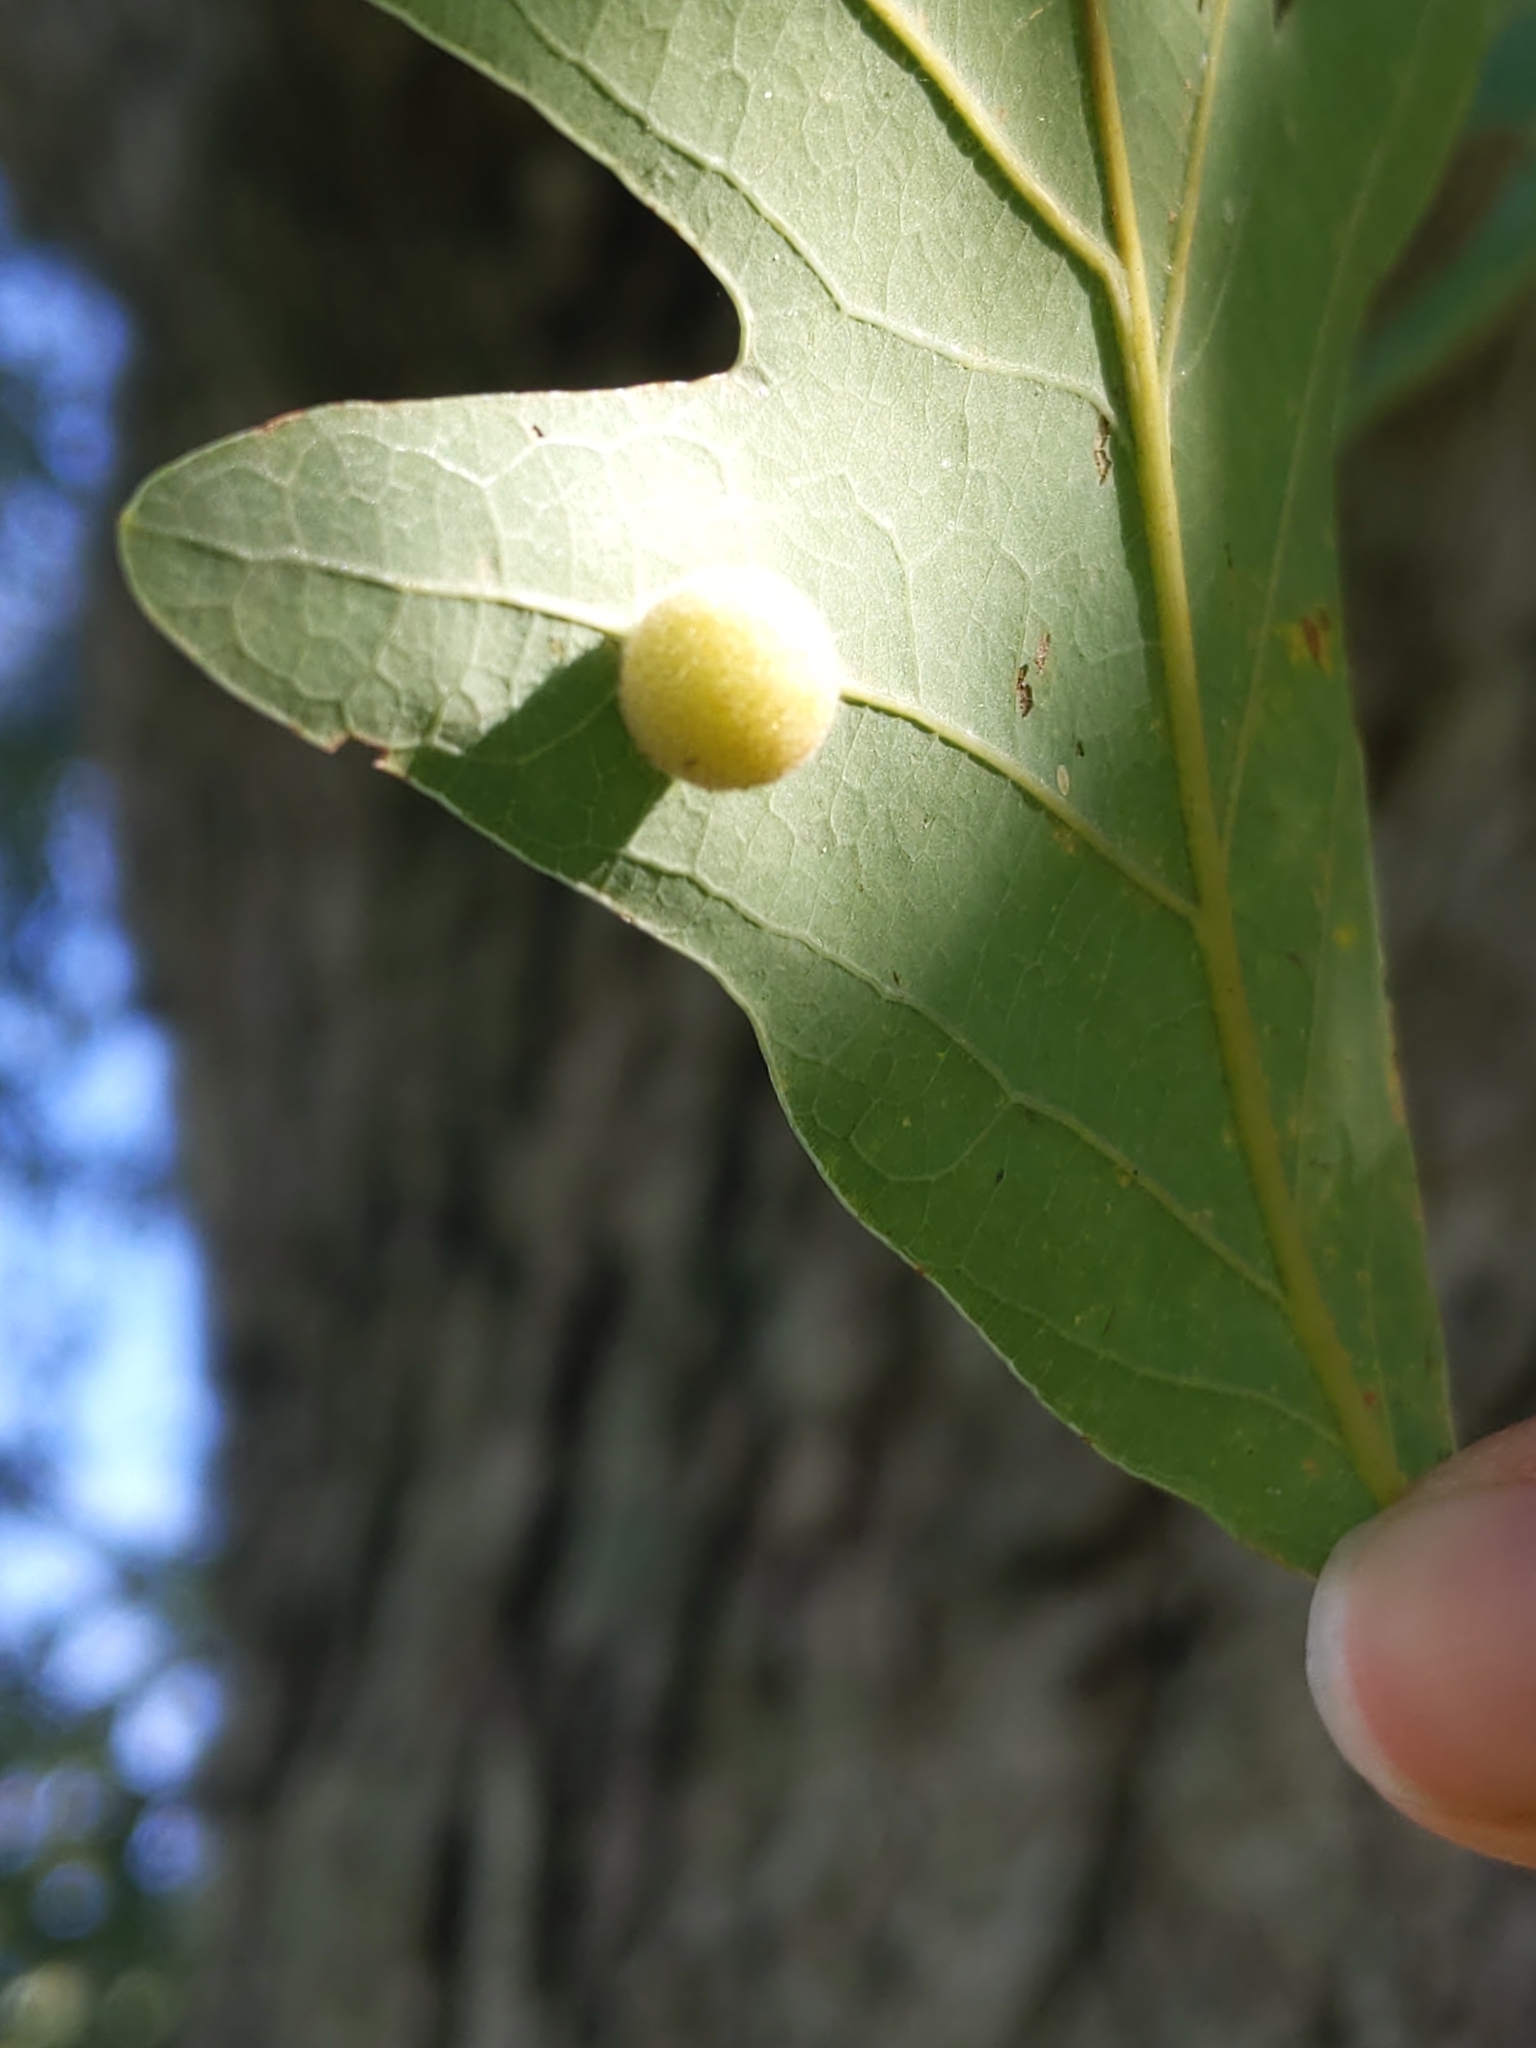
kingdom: Animalia
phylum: Arthropoda
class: Insecta
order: Hymenoptera
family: Cynipidae
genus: Philonix
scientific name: Philonix fulvicollis
